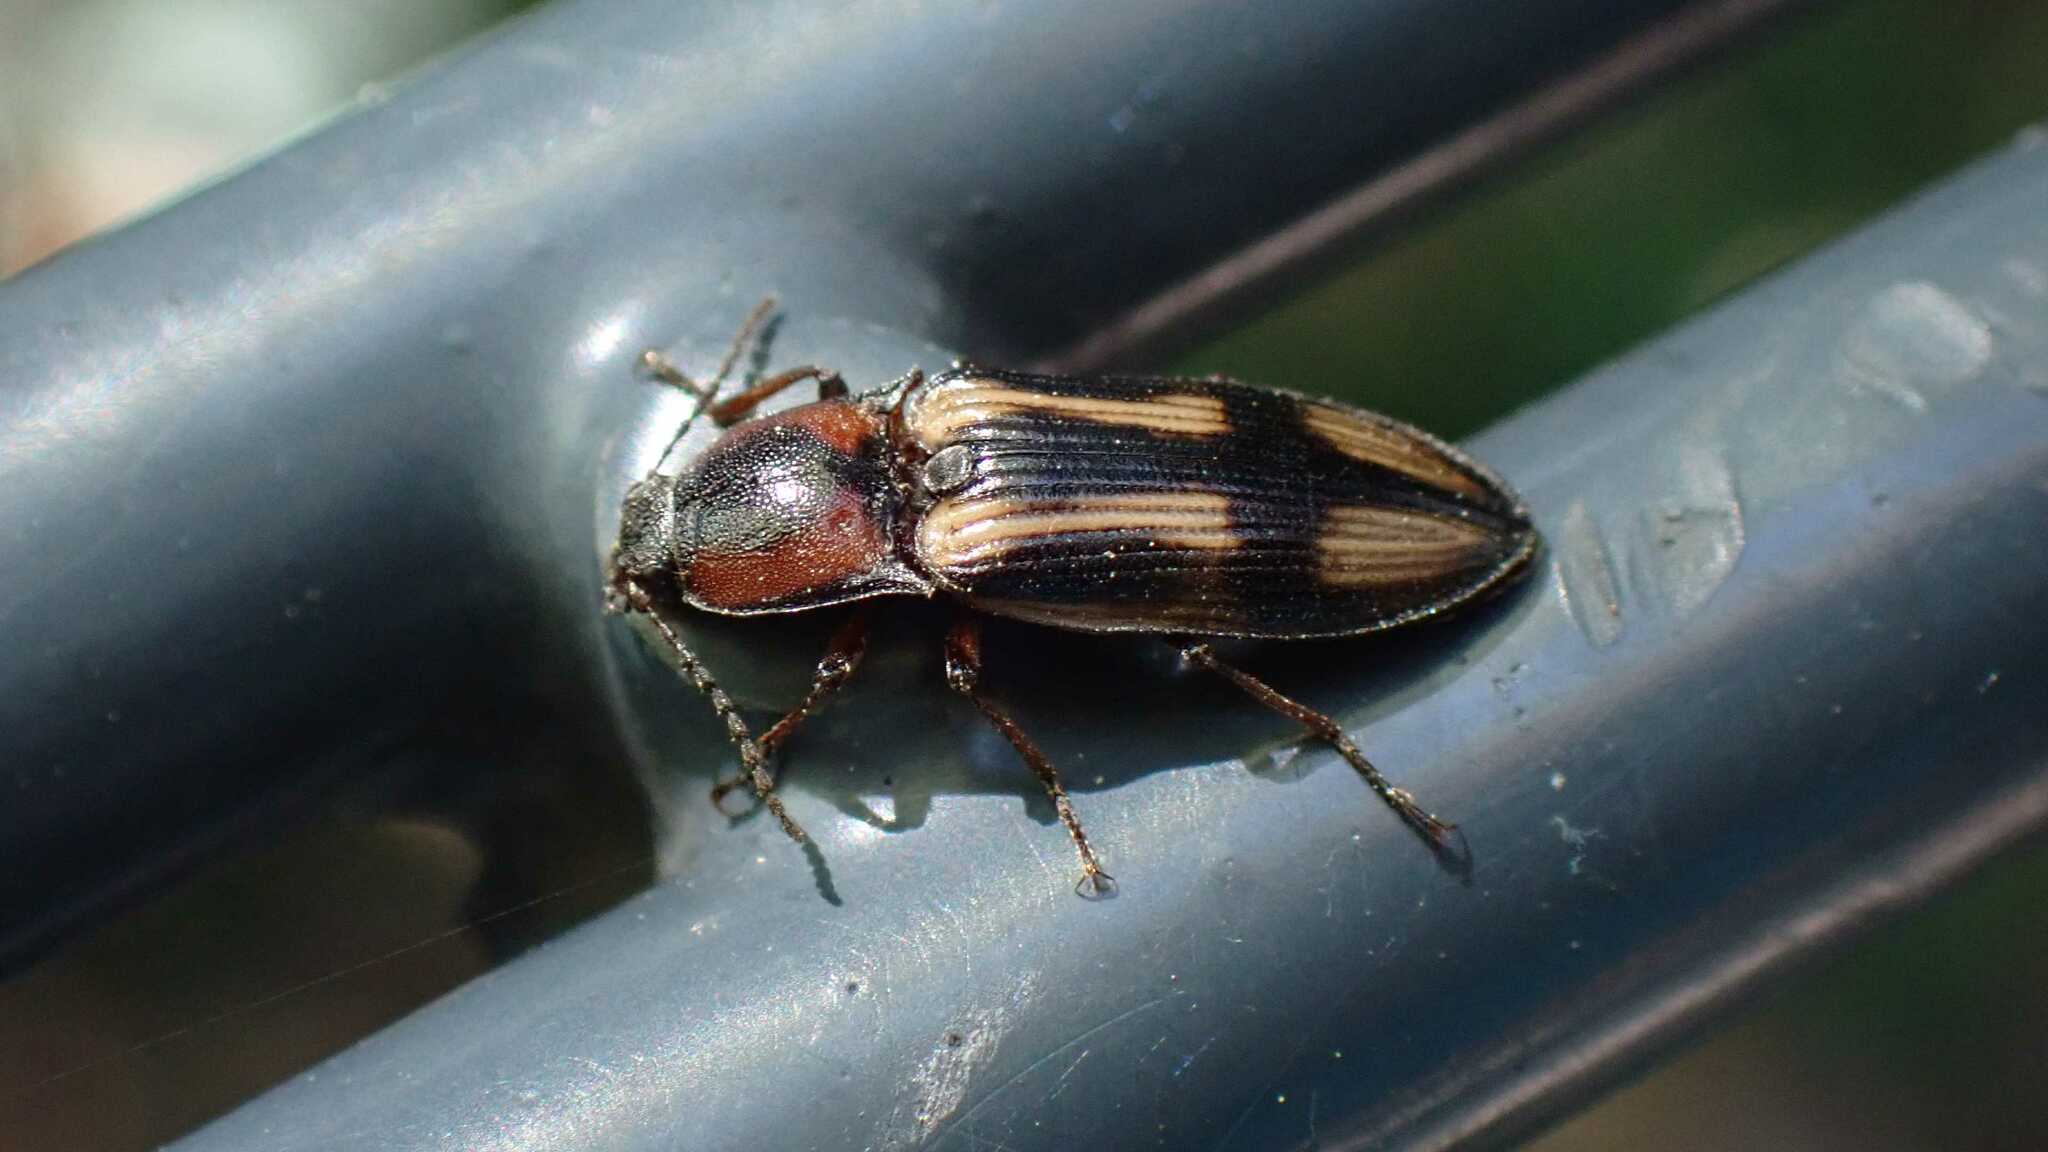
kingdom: Animalia
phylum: Arthropoda
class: Insecta
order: Coleoptera
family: Elateridae
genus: Selatosomus
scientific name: Selatosomus cruciatus
